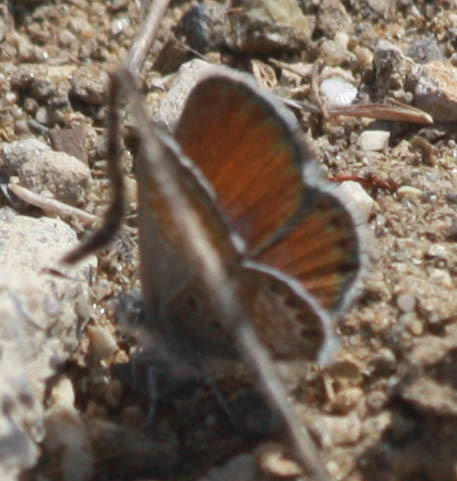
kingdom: Animalia
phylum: Arthropoda
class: Insecta
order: Lepidoptera
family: Lycaenidae
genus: Brephidium
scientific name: Brephidium exilis
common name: Pygmy blue
